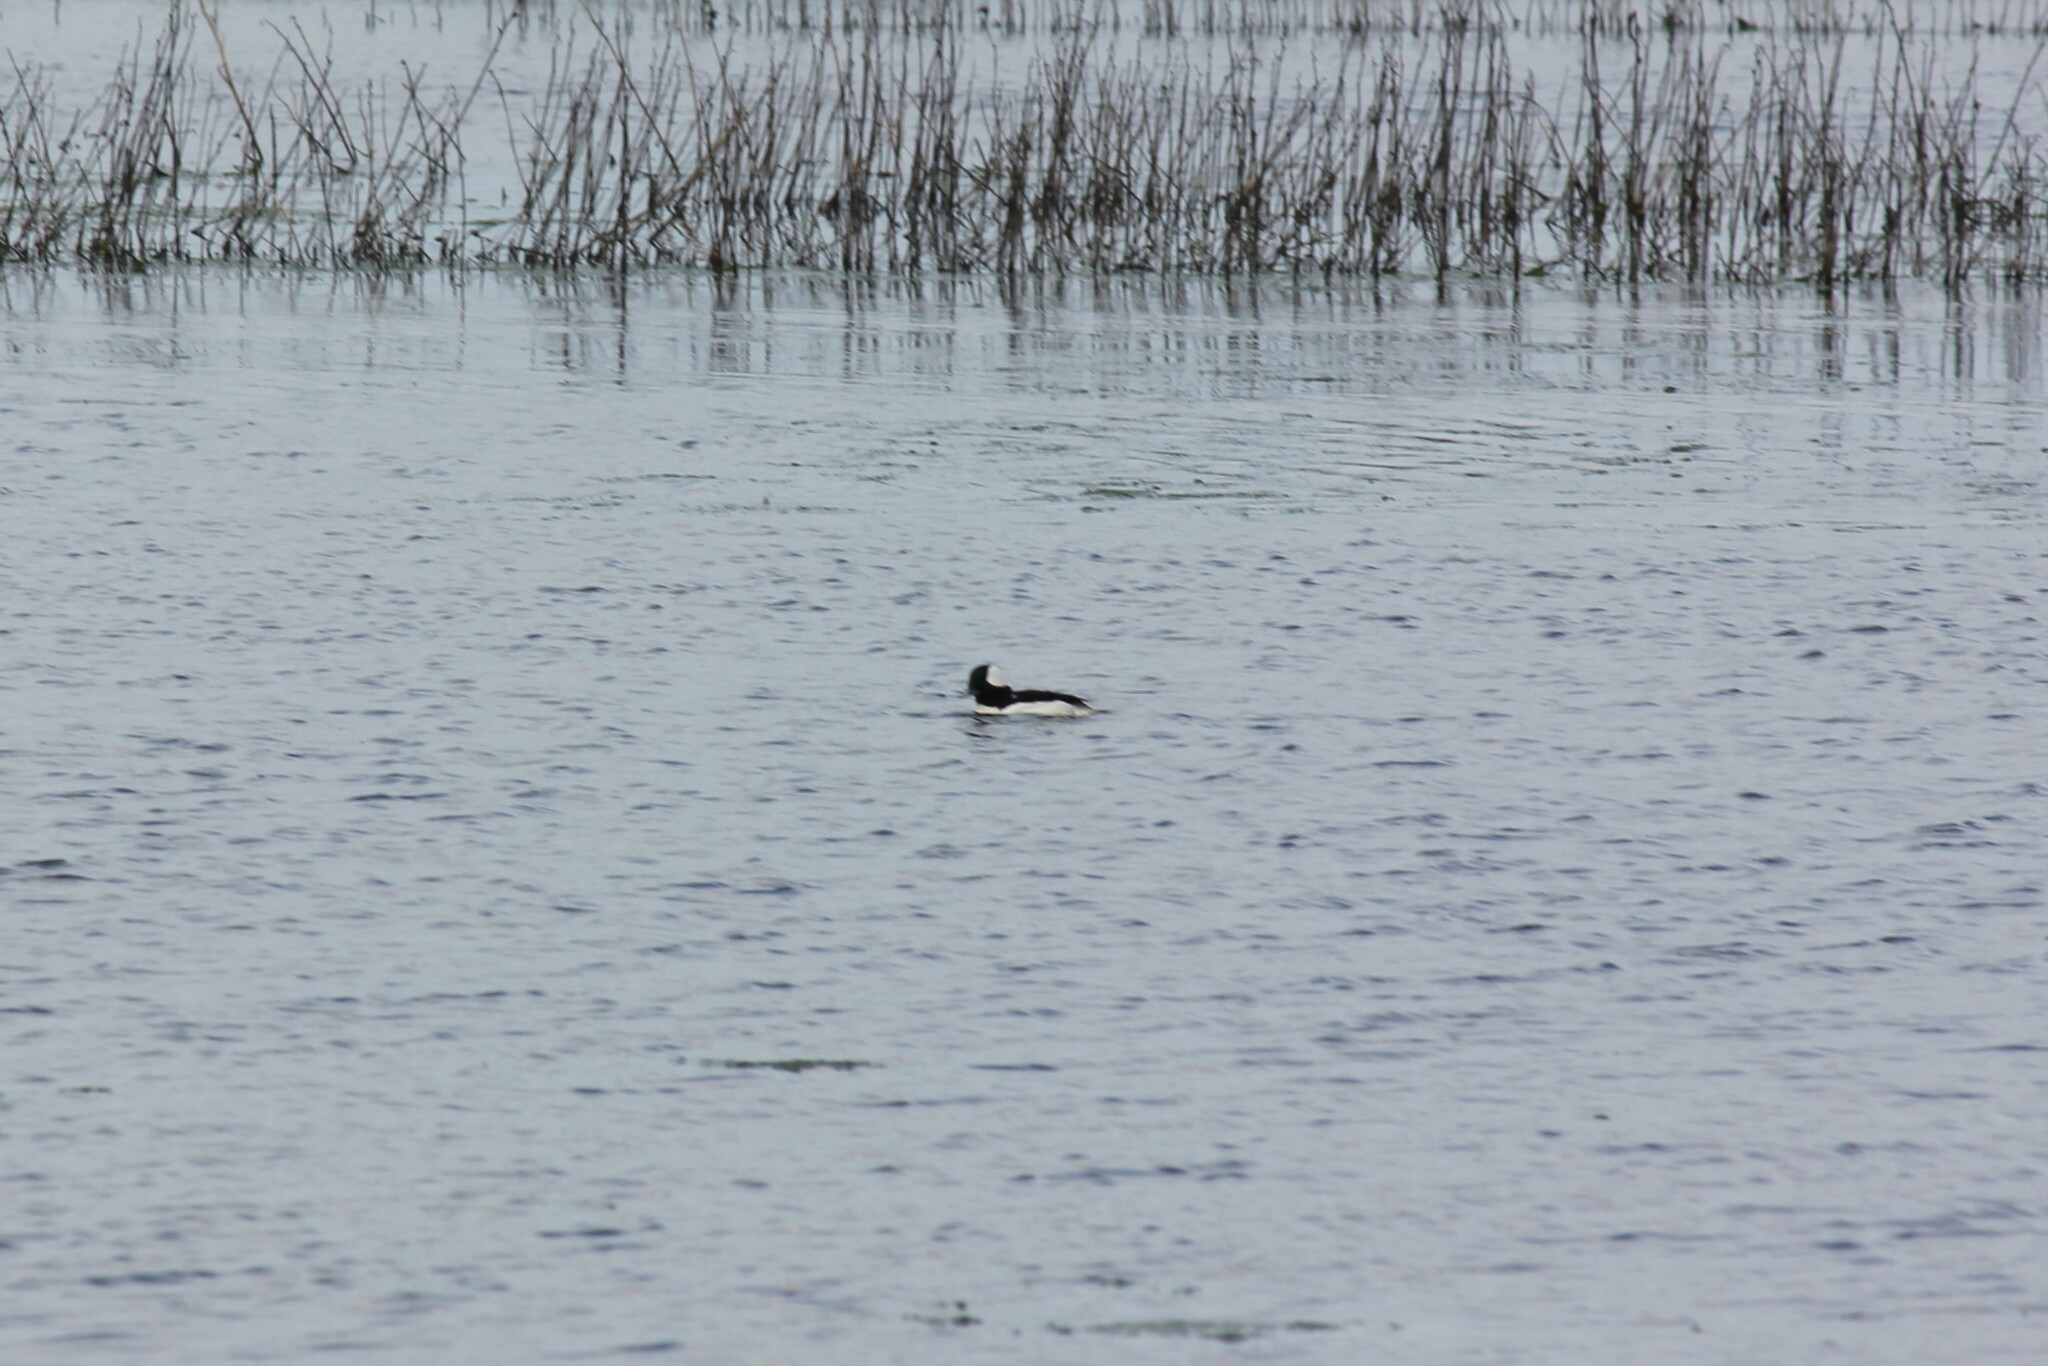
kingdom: Animalia
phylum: Chordata
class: Aves
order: Anseriformes
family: Anatidae
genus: Bucephala
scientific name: Bucephala albeola
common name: Bufflehead
